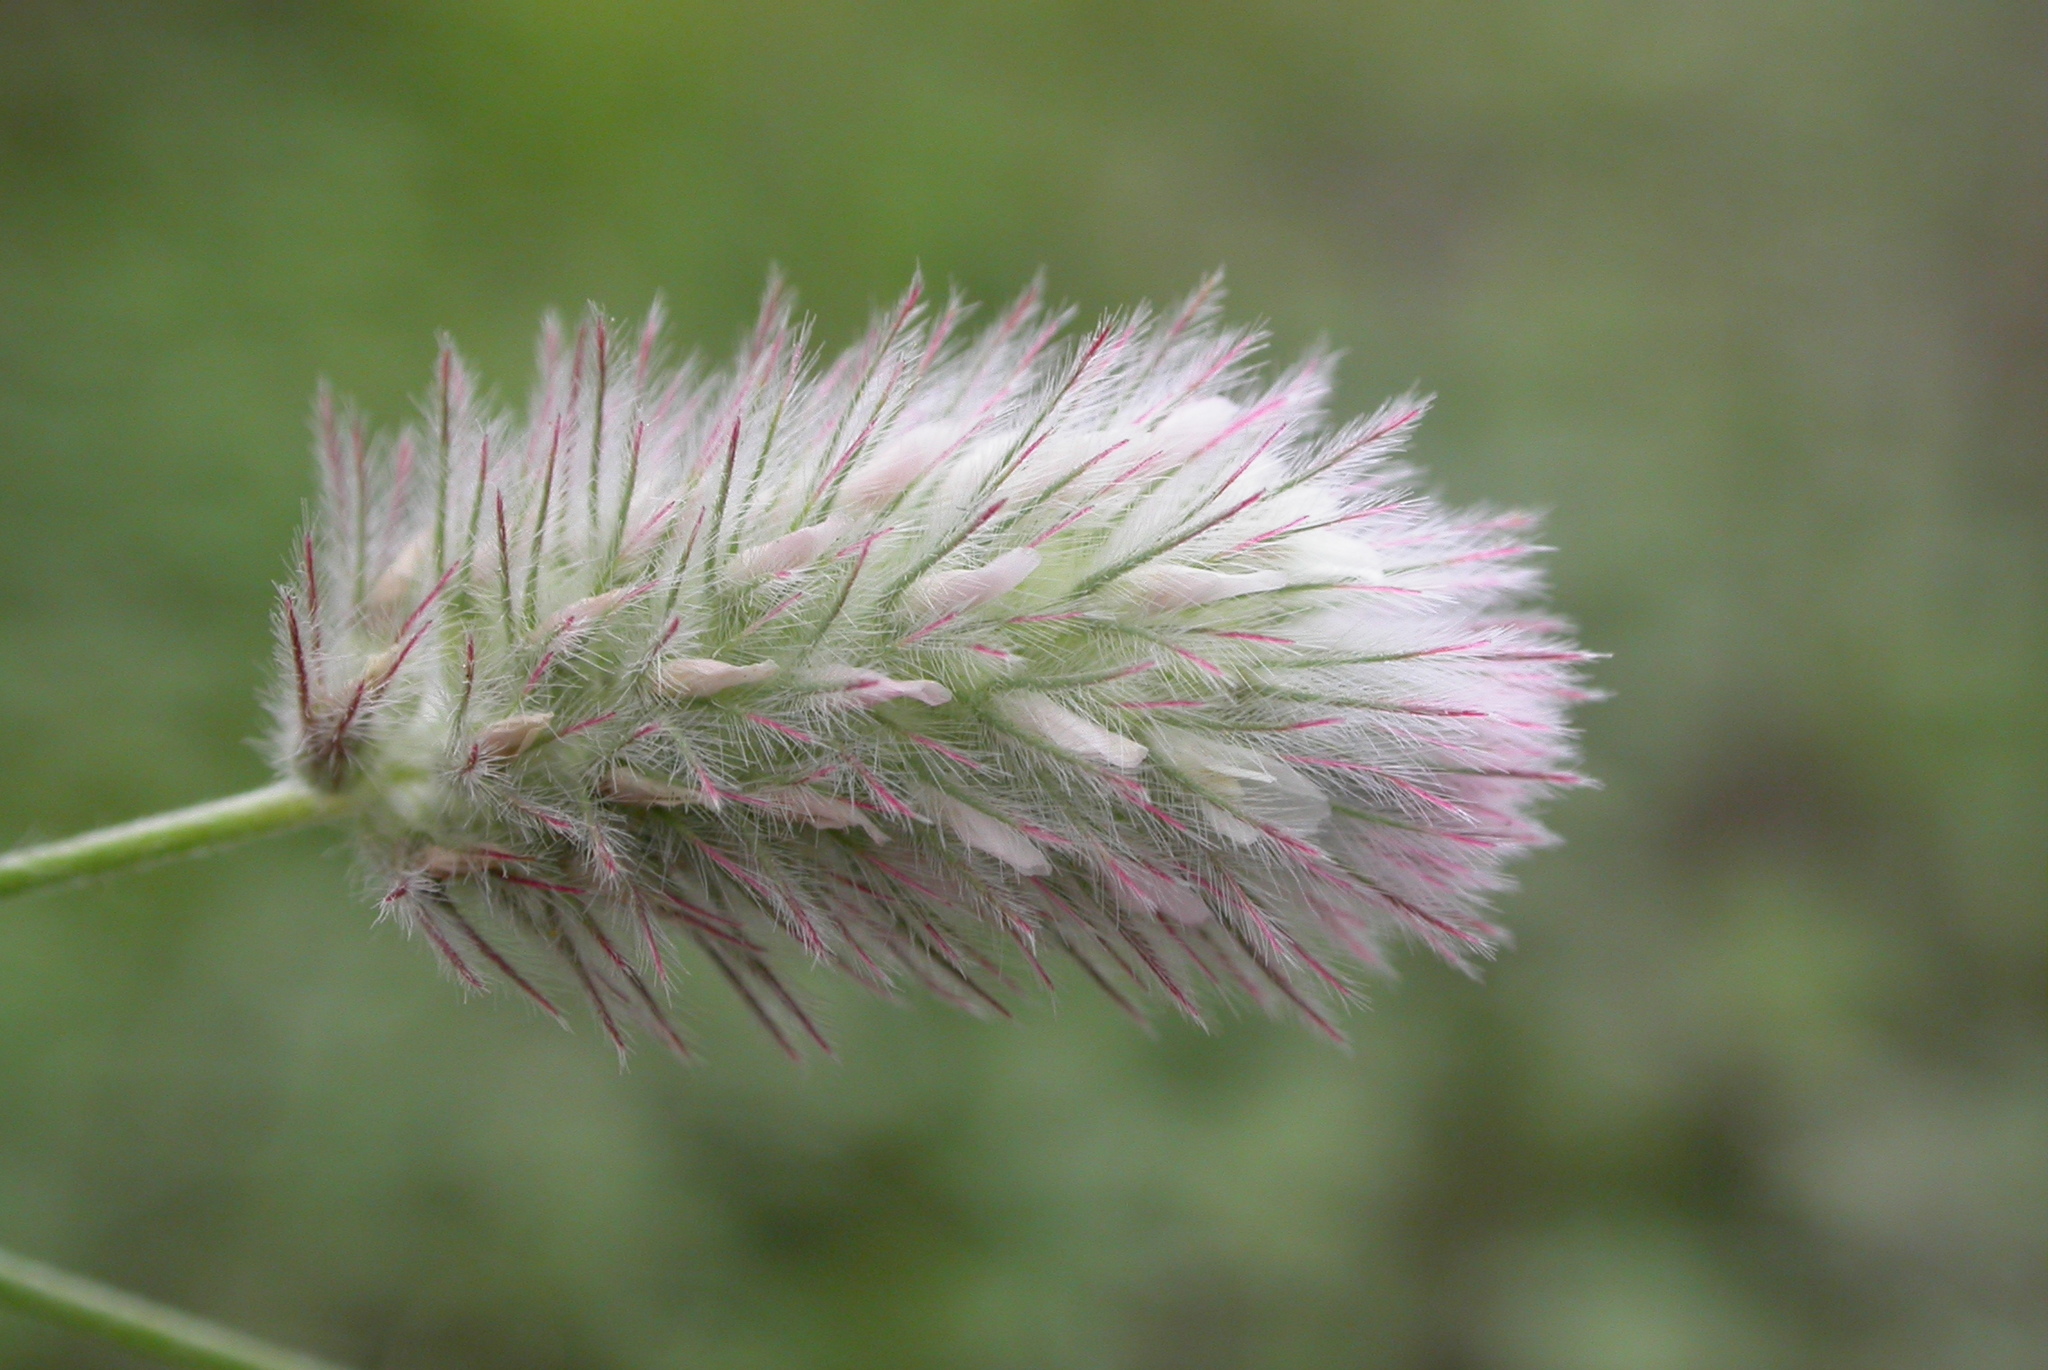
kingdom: Plantae
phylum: Tracheophyta
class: Magnoliopsida
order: Fabales
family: Fabaceae
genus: Trifolium
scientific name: Trifolium arvense
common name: Hare's-foot clover
